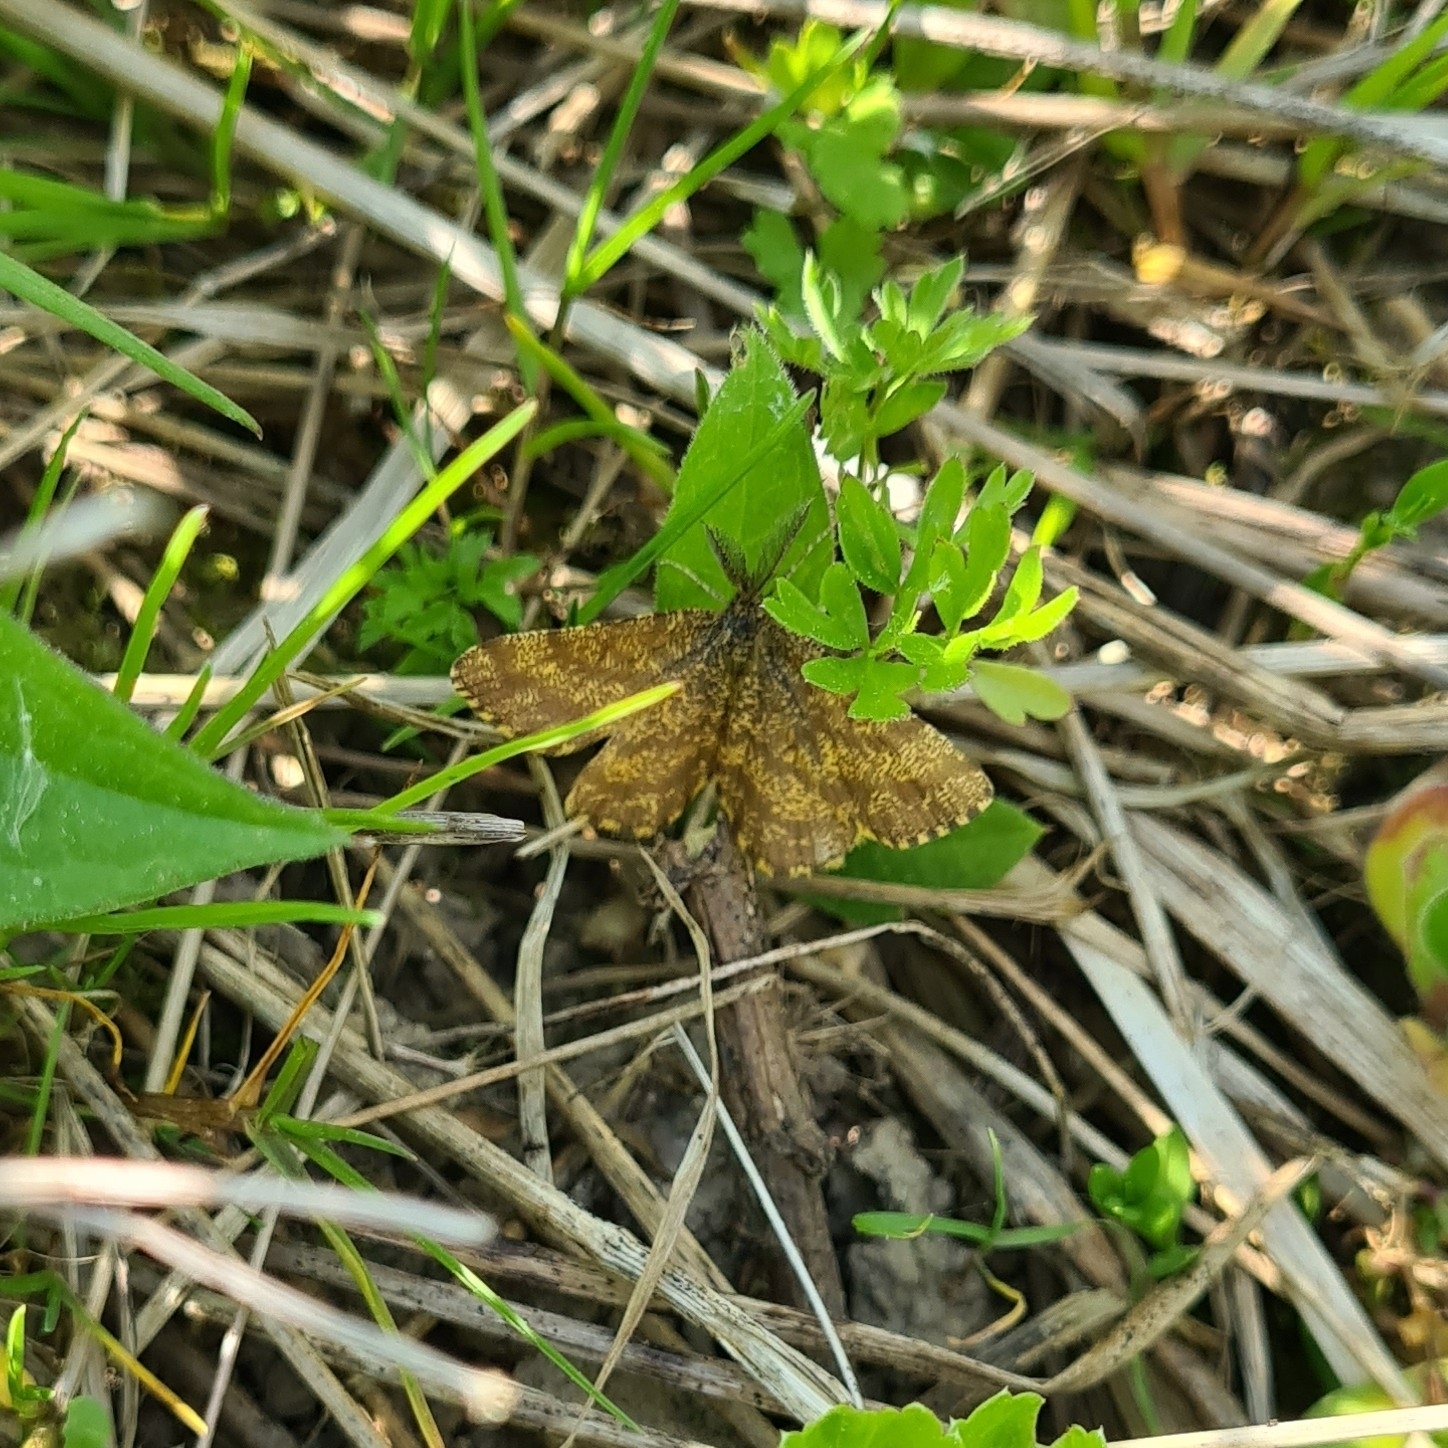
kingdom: Animalia
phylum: Arthropoda
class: Insecta
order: Lepidoptera
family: Geometridae
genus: Ematurga
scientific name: Ematurga atomaria
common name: Common heath
